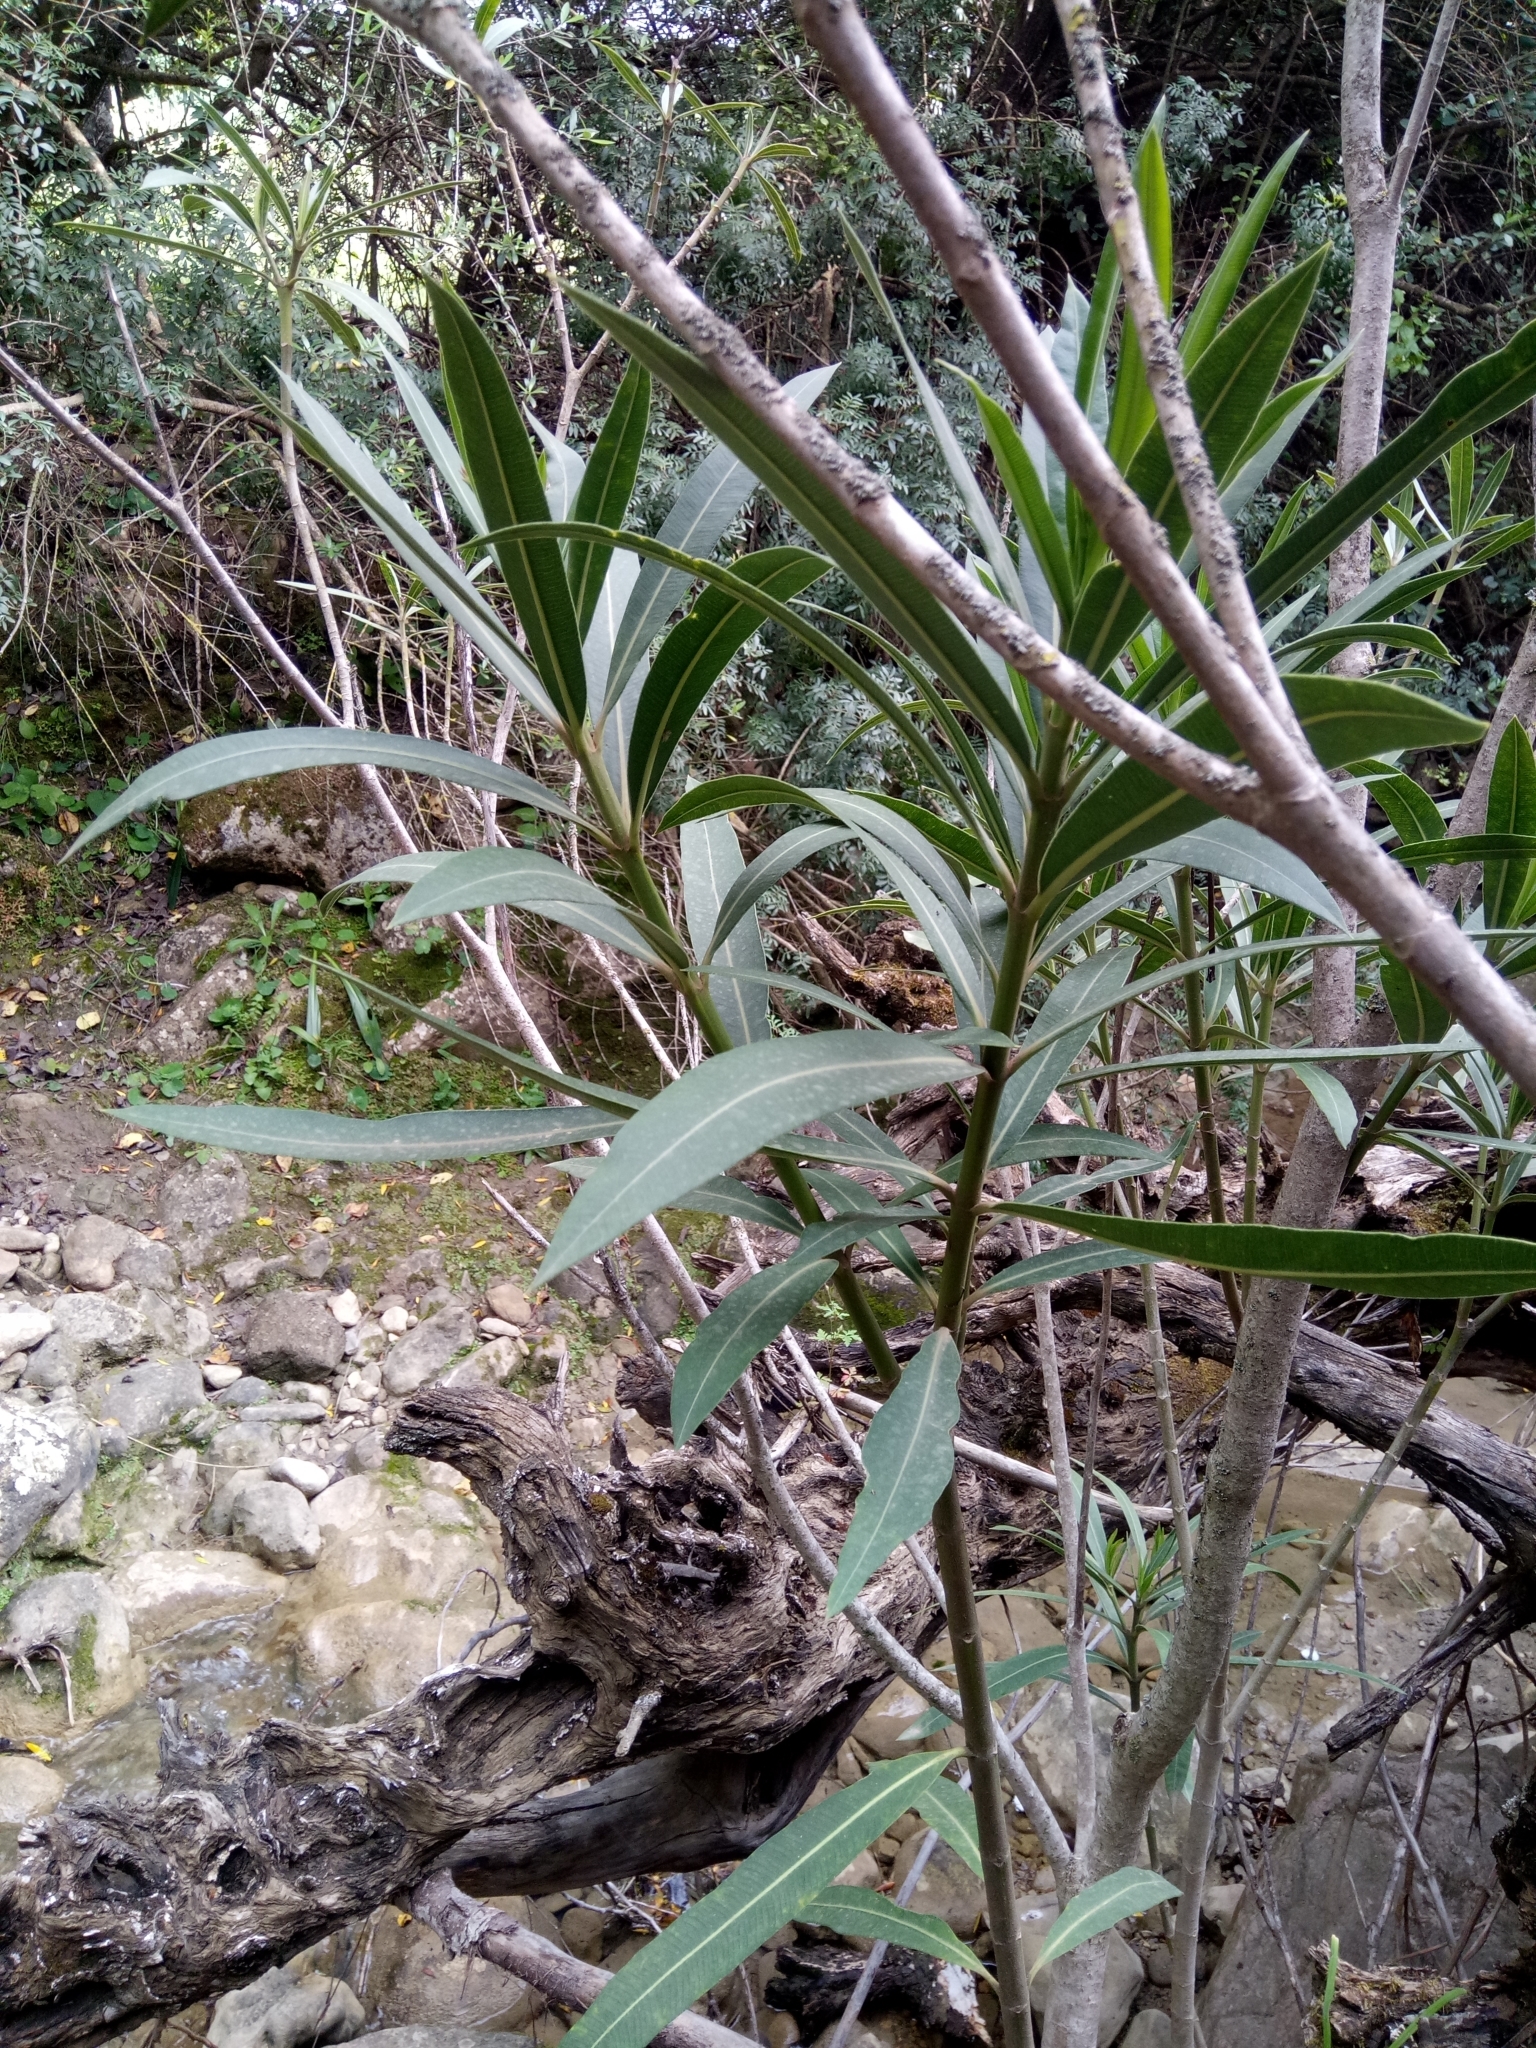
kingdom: Plantae
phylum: Tracheophyta
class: Magnoliopsida
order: Gentianales
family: Apocynaceae
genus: Nerium
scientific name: Nerium oleander
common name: Oleander
